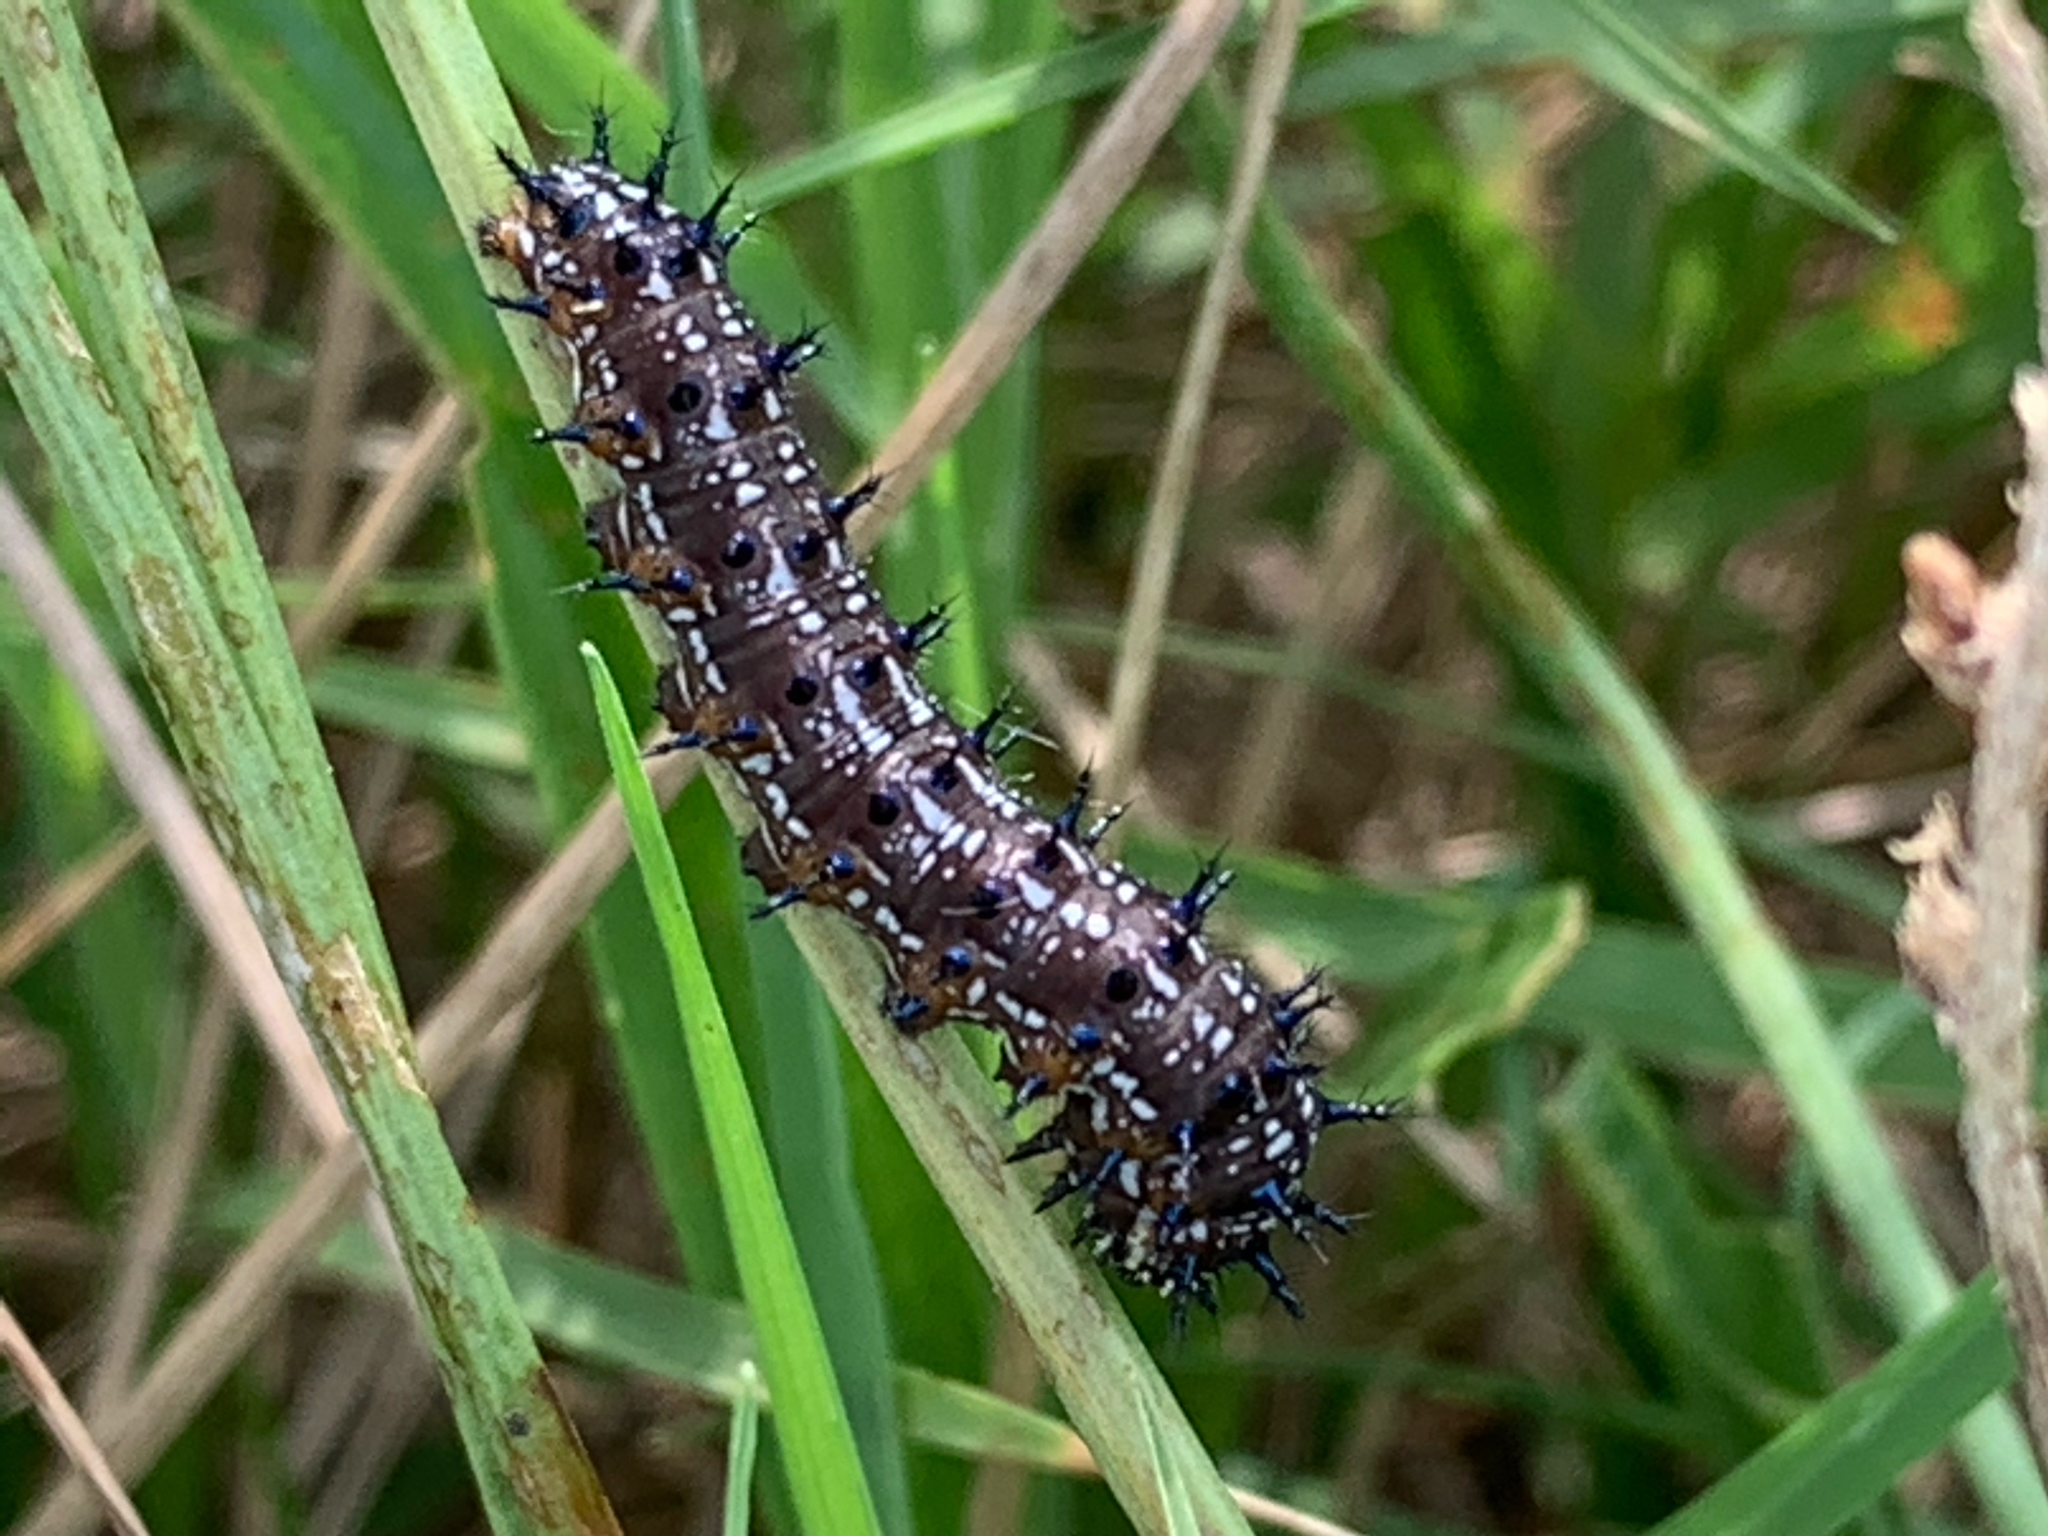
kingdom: Animalia
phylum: Arthropoda
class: Insecta
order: Lepidoptera
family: Nymphalidae
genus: Junonia
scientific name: Junonia coenia
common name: Common buckeye
